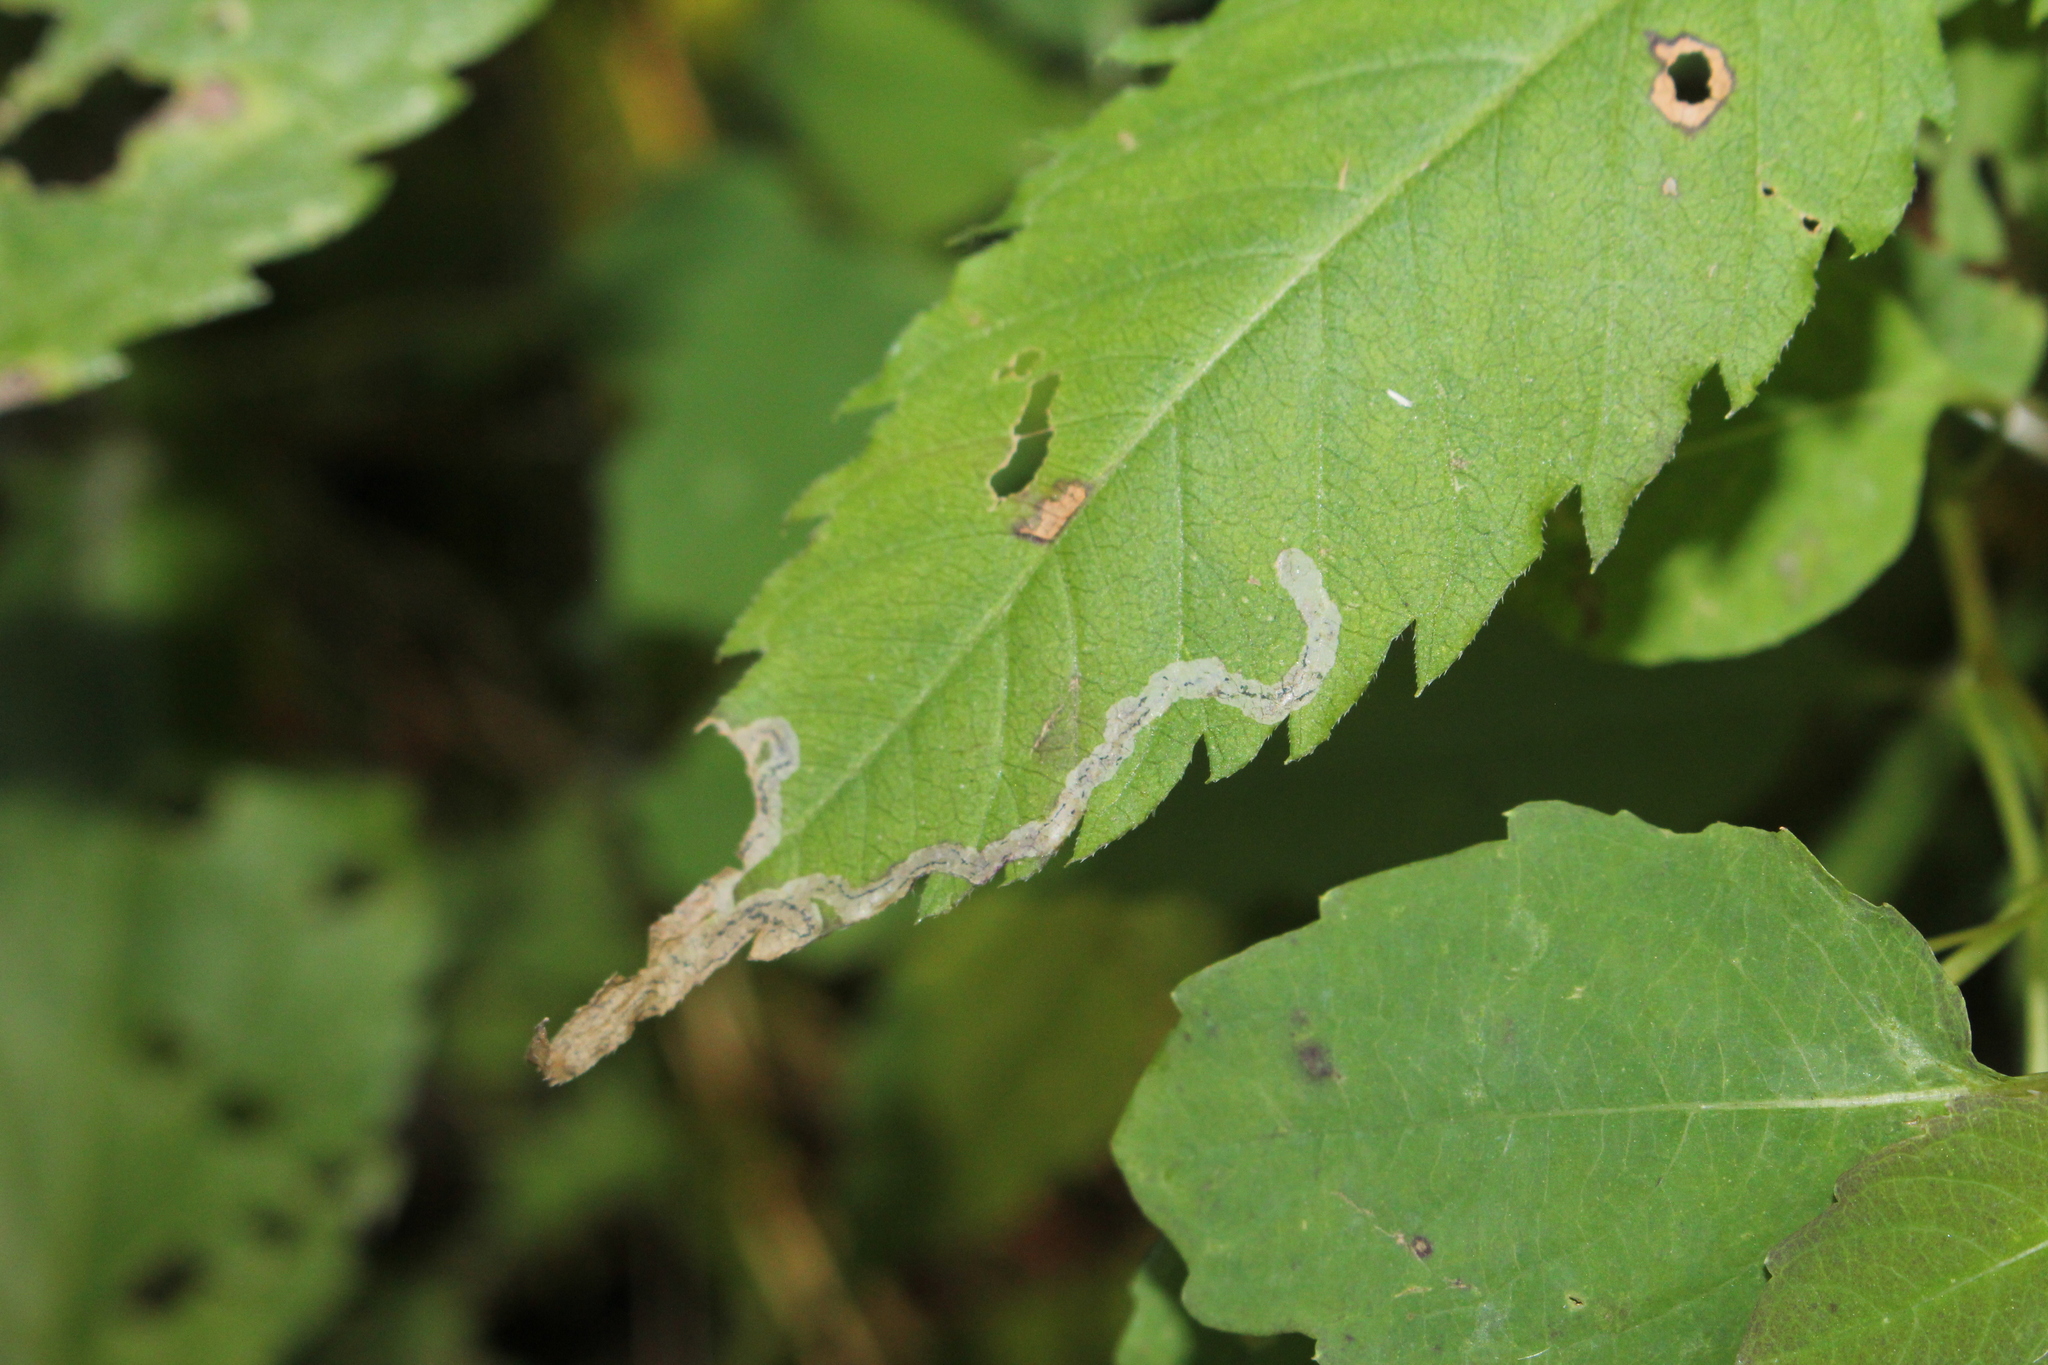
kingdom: Animalia
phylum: Arthropoda
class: Insecta
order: Diptera
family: Agromyzidae
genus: Liriomyza
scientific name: Liriomyza carphephori
